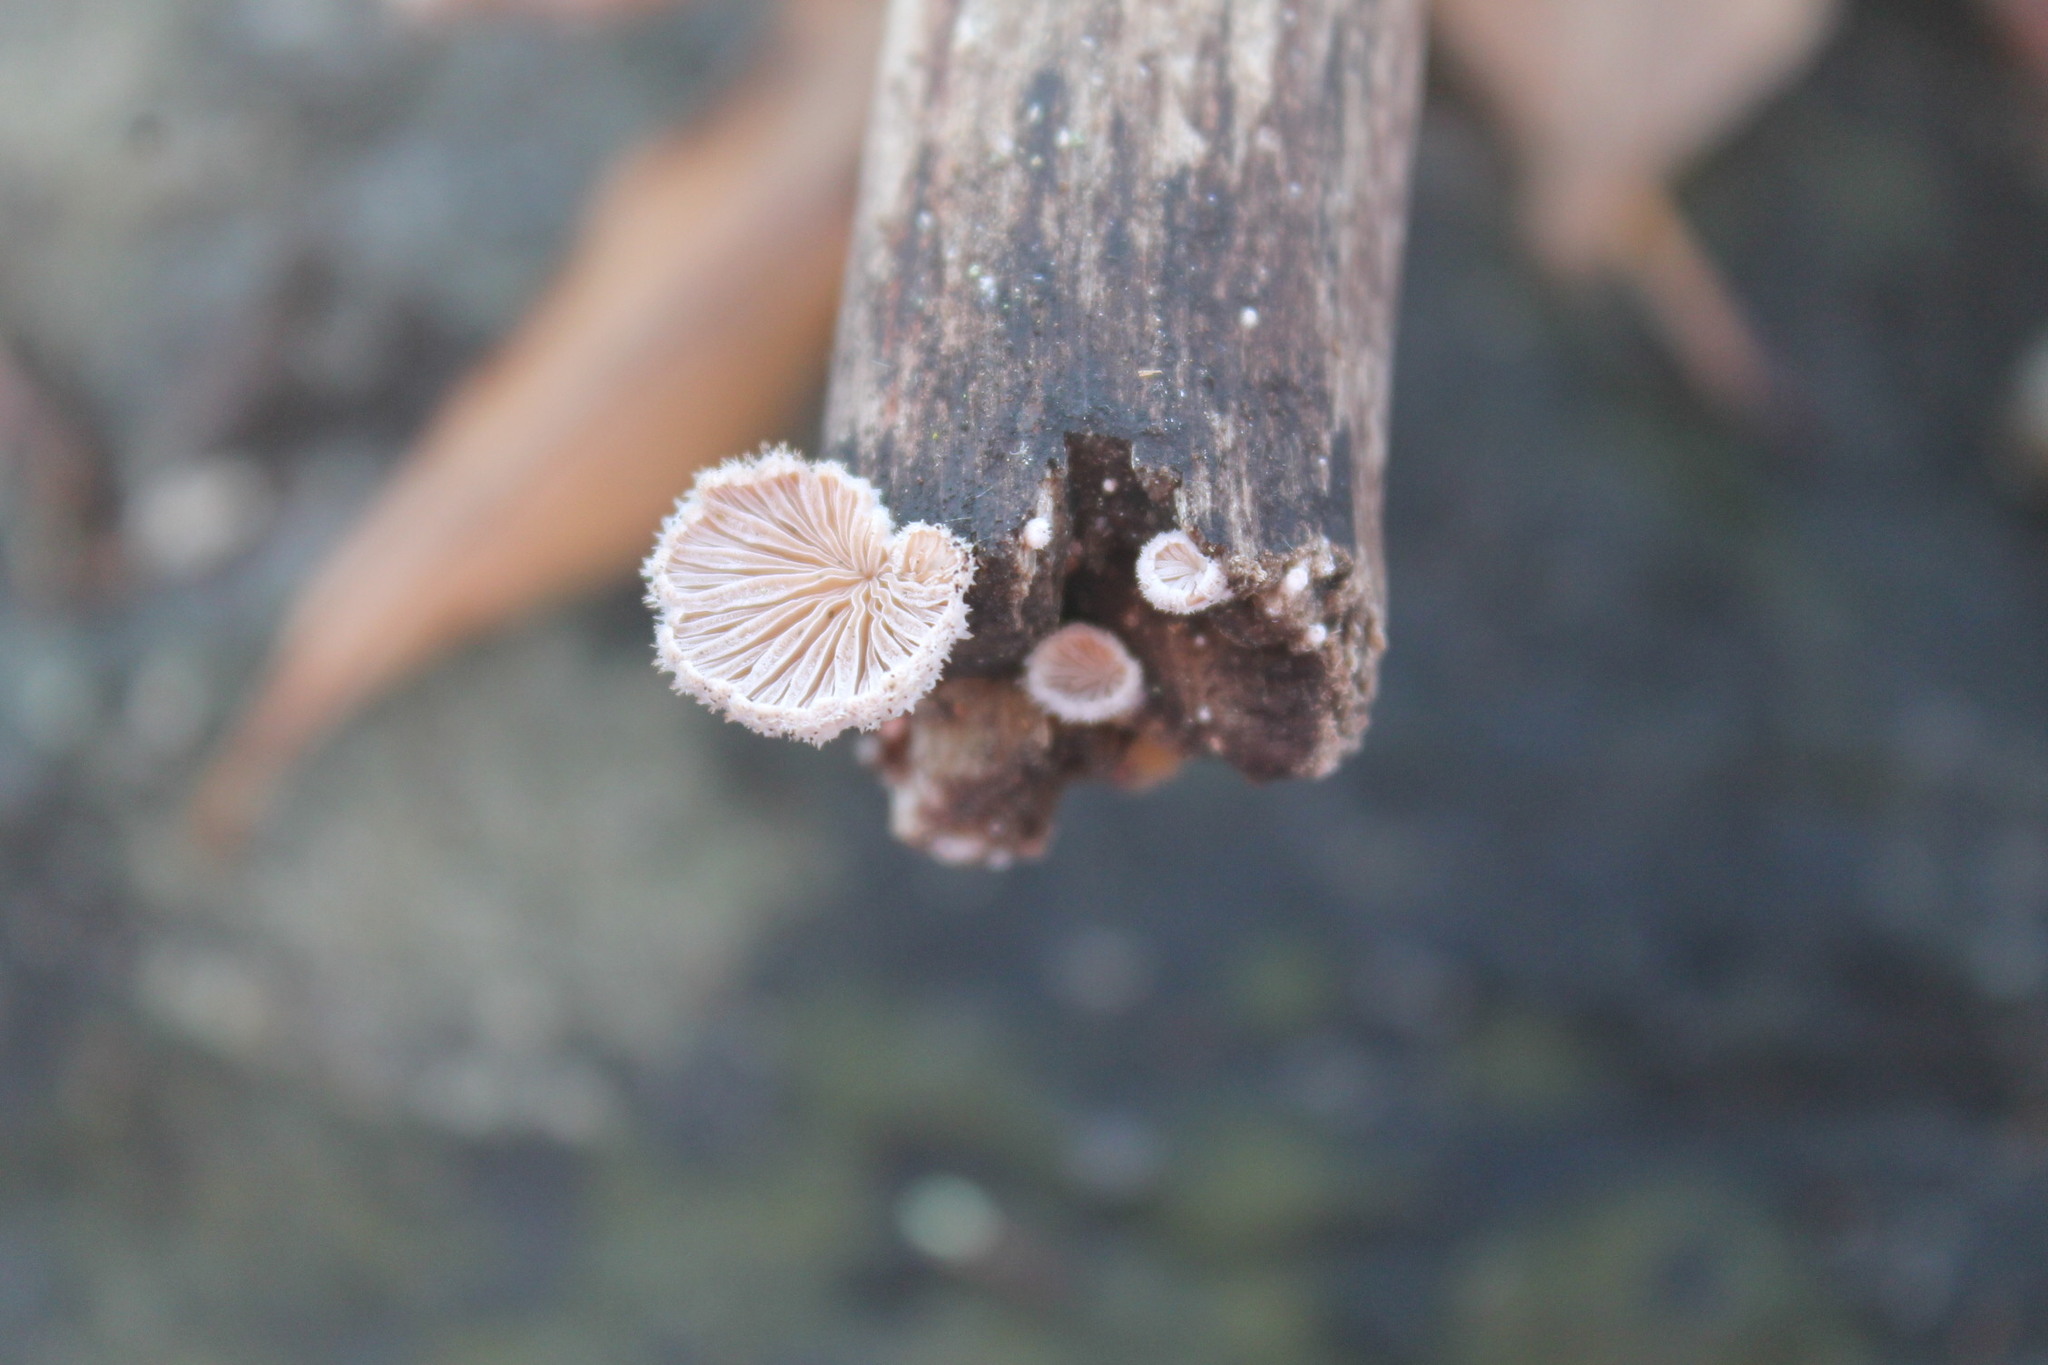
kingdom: Fungi
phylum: Basidiomycota
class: Agaricomycetes
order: Agaricales
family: Schizophyllaceae
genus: Schizophyllum
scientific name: Schizophyllum commune
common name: Common porecrust
